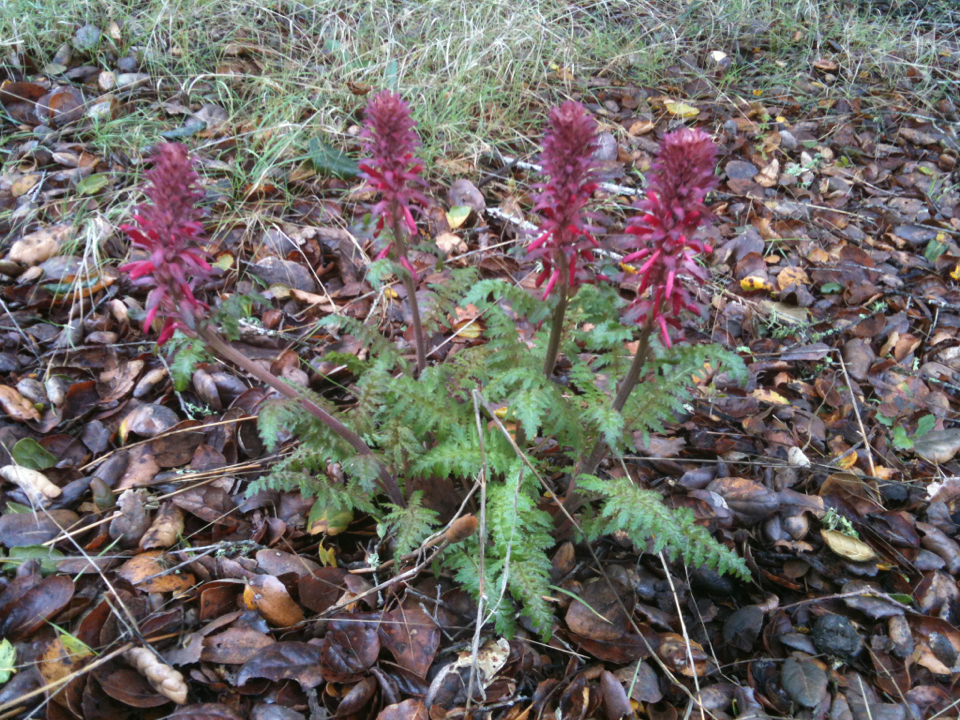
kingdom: Plantae
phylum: Tracheophyta
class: Magnoliopsida
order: Lamiales
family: Orobanchaceae
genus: Pedicularis
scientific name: Pedicularis densiflora
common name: Indian warrior
